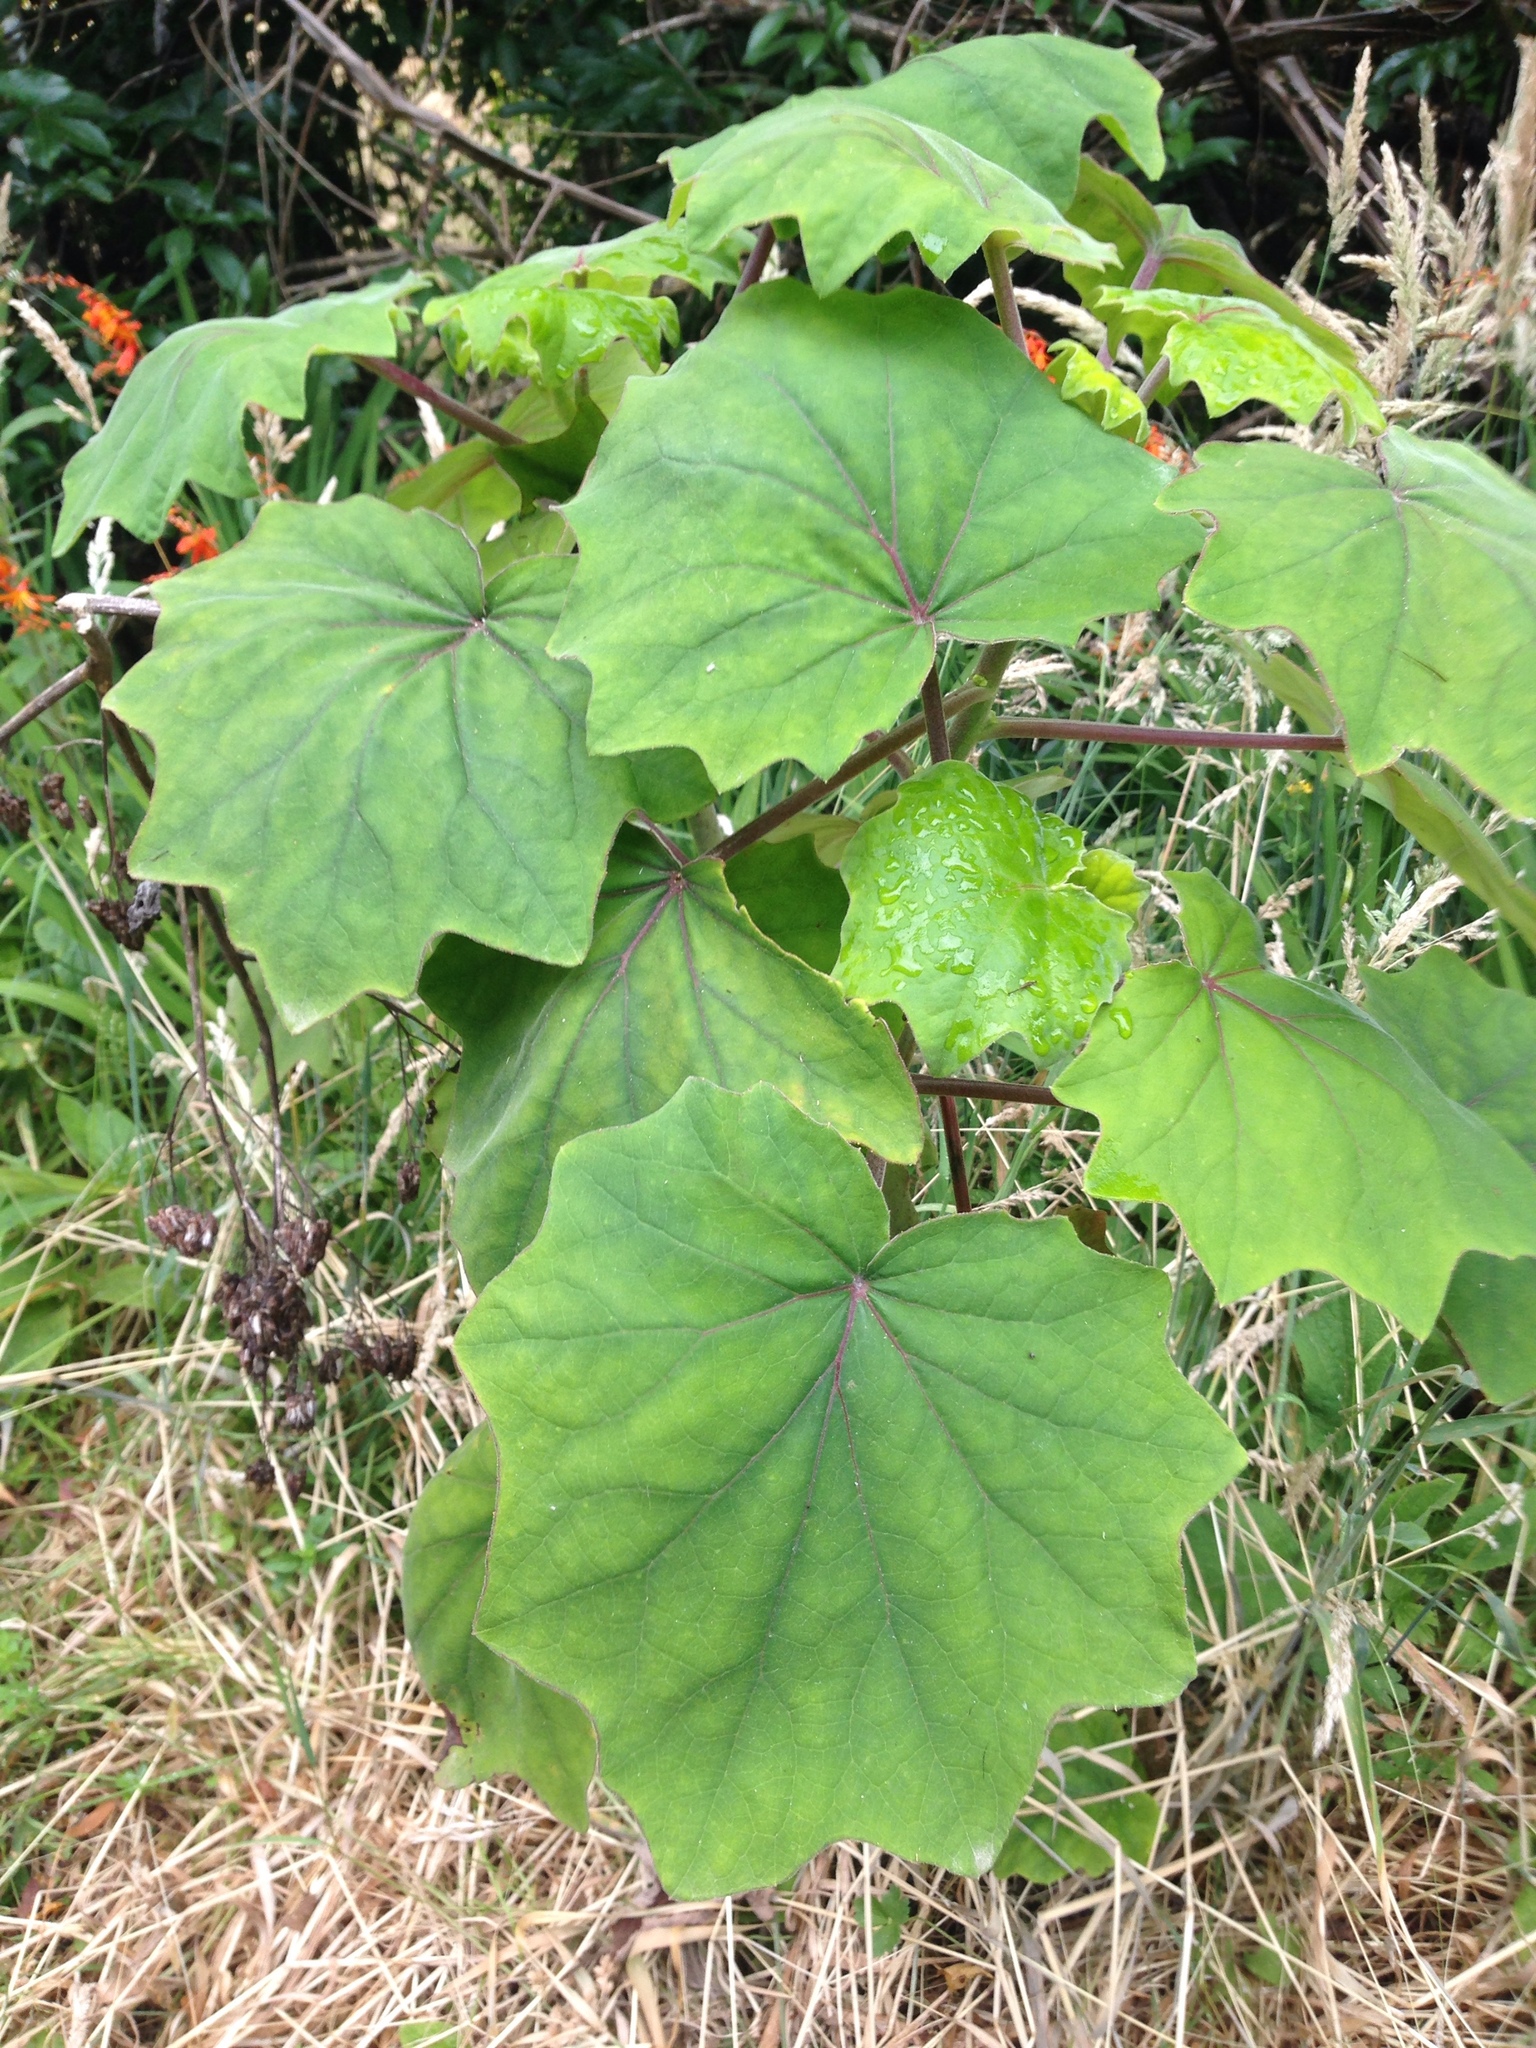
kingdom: Plantae
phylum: Tracheophyta
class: Magnoliopsida
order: Asterales
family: Asteraceae
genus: Roldana
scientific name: Roldana petasitis
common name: California-geranium
